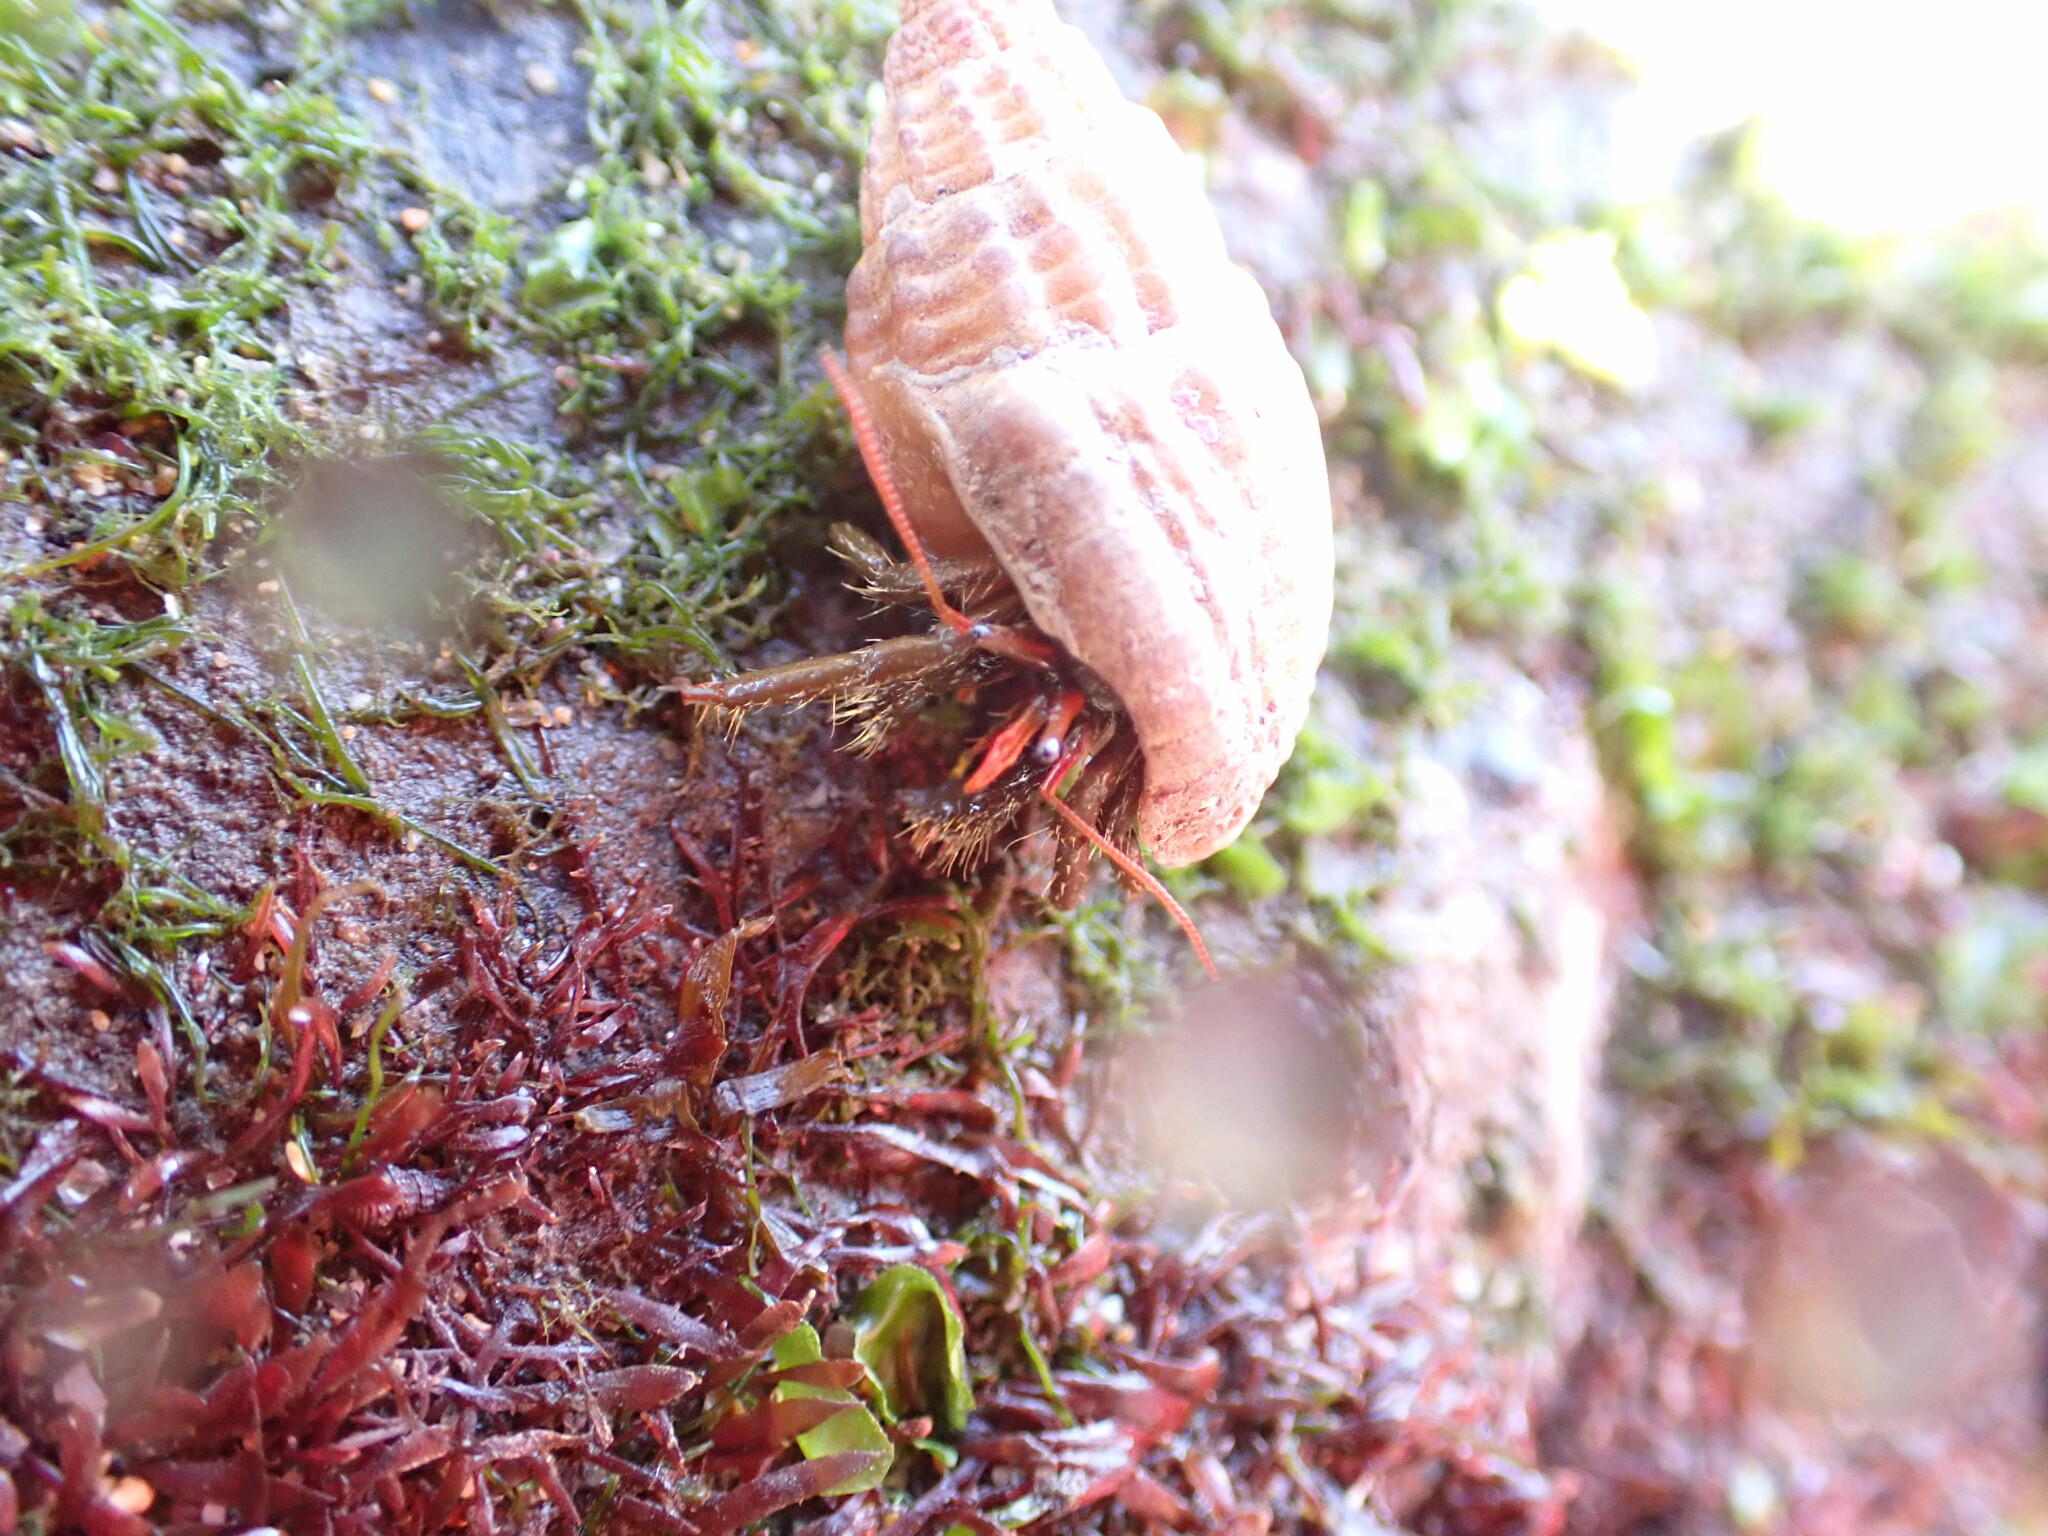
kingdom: Animalia
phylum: Arthropoda
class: Malacostraca
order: Decapoda
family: Diogenidae
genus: Clibanarius
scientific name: Clibanarius erythropus
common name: Hermit crab
